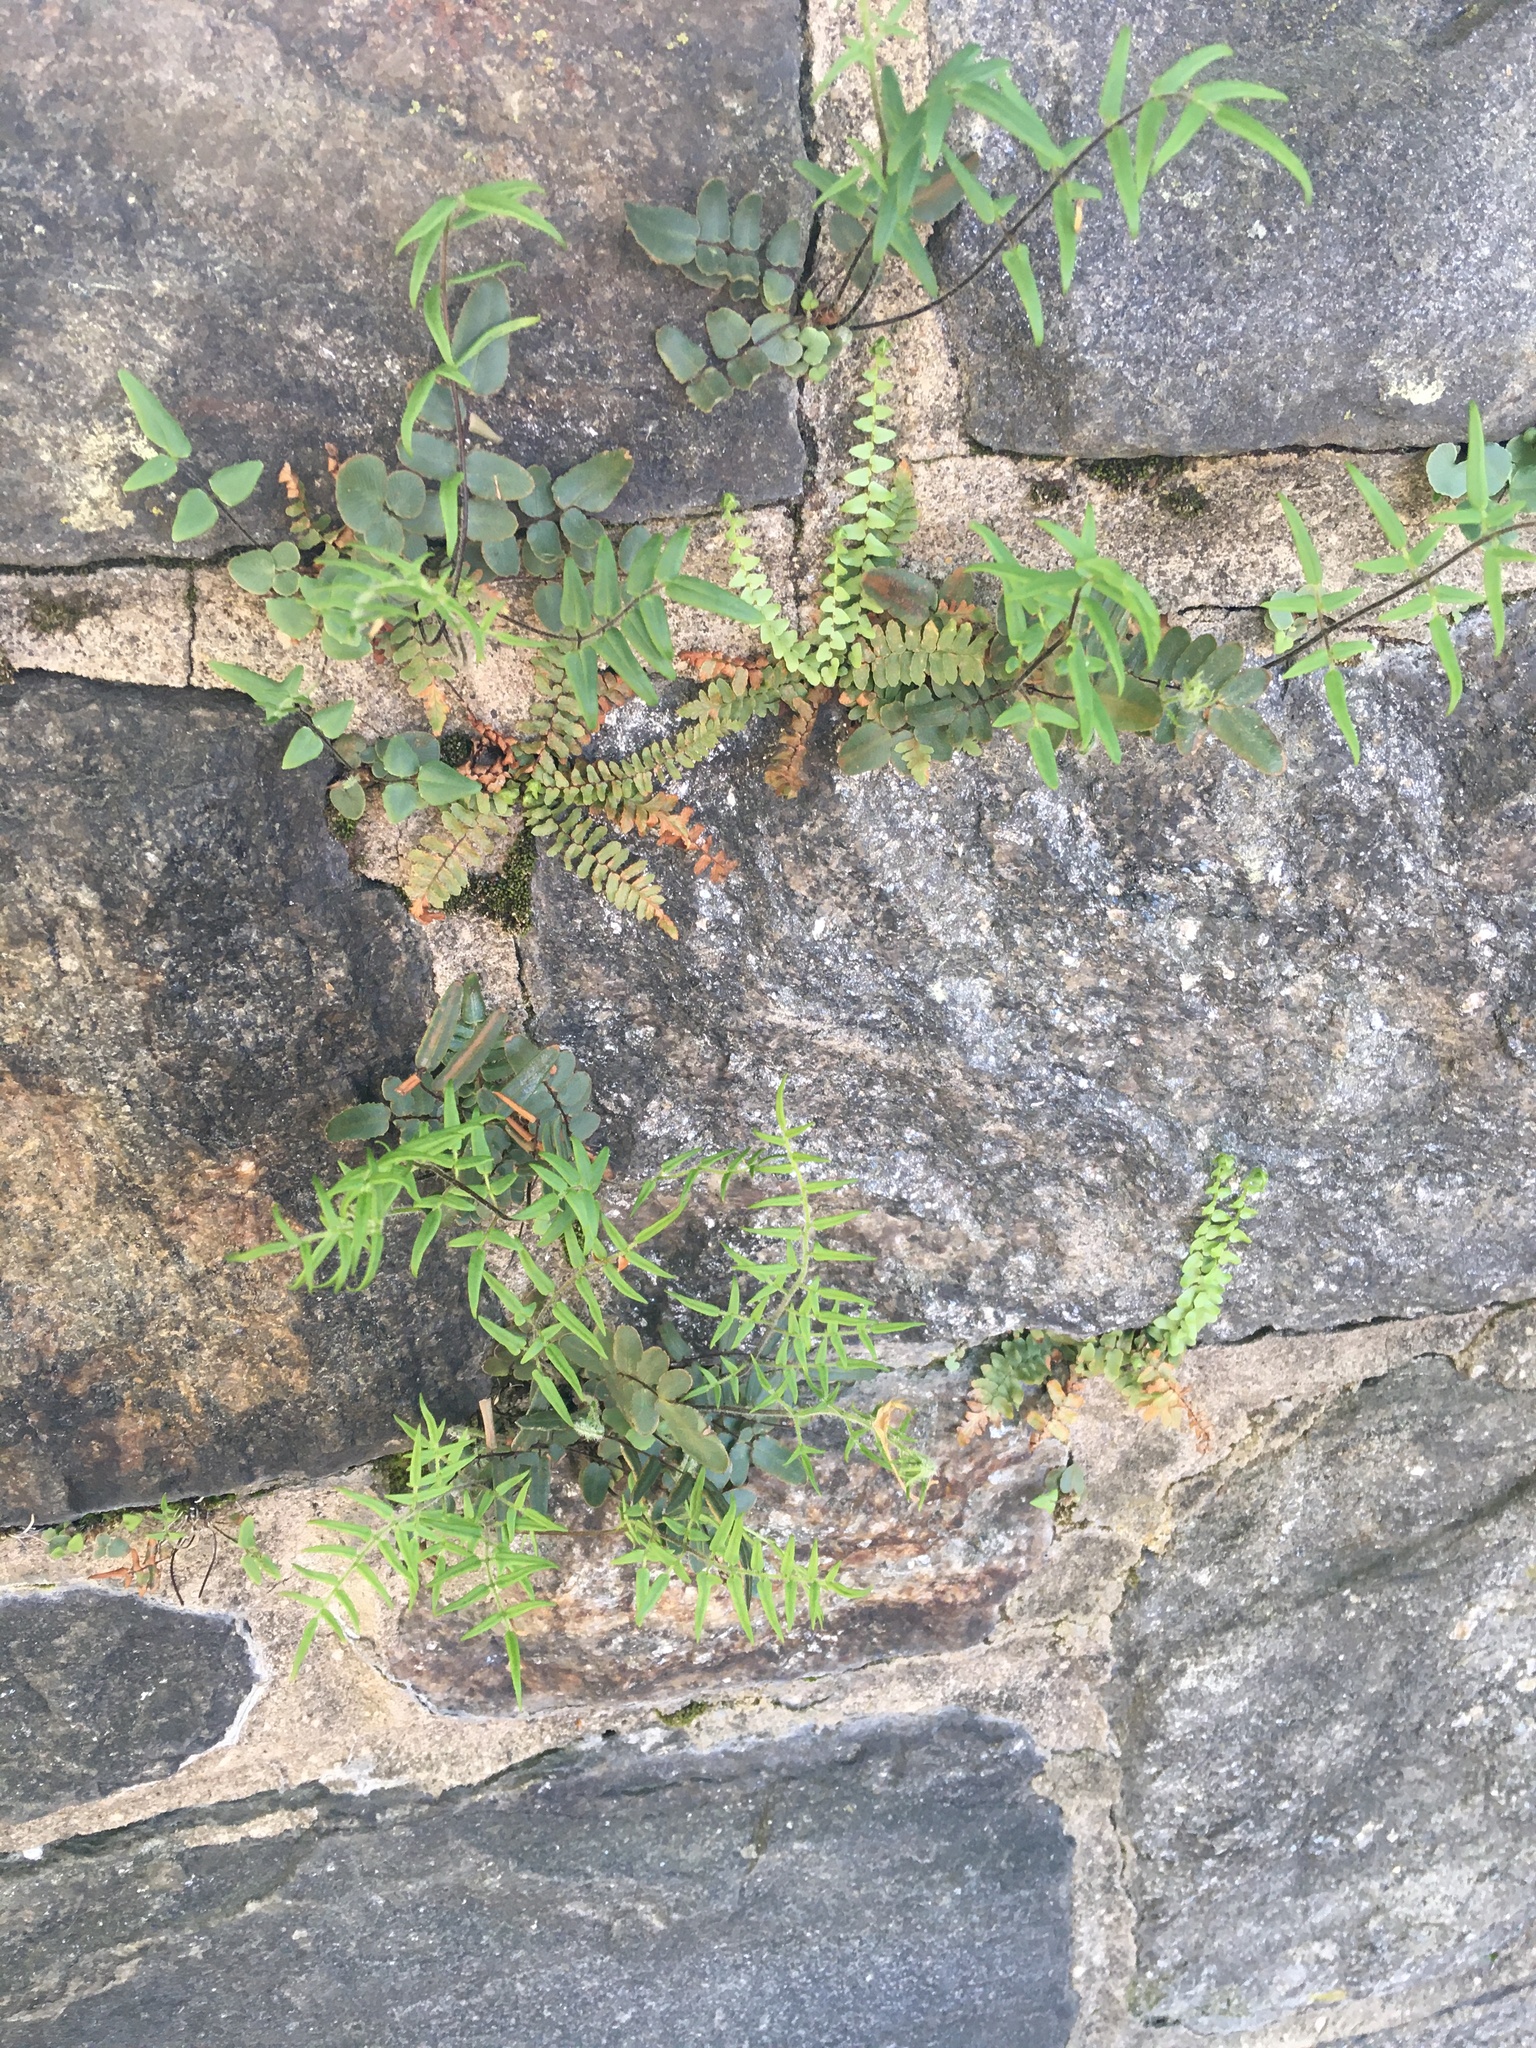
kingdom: Plantae
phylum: Tracheophyta
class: Polypodiopsida
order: Polypodiales
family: Pteridaceae
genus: Pellaea
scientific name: Pellaea atropurpurea
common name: Hairy cliffbrake
